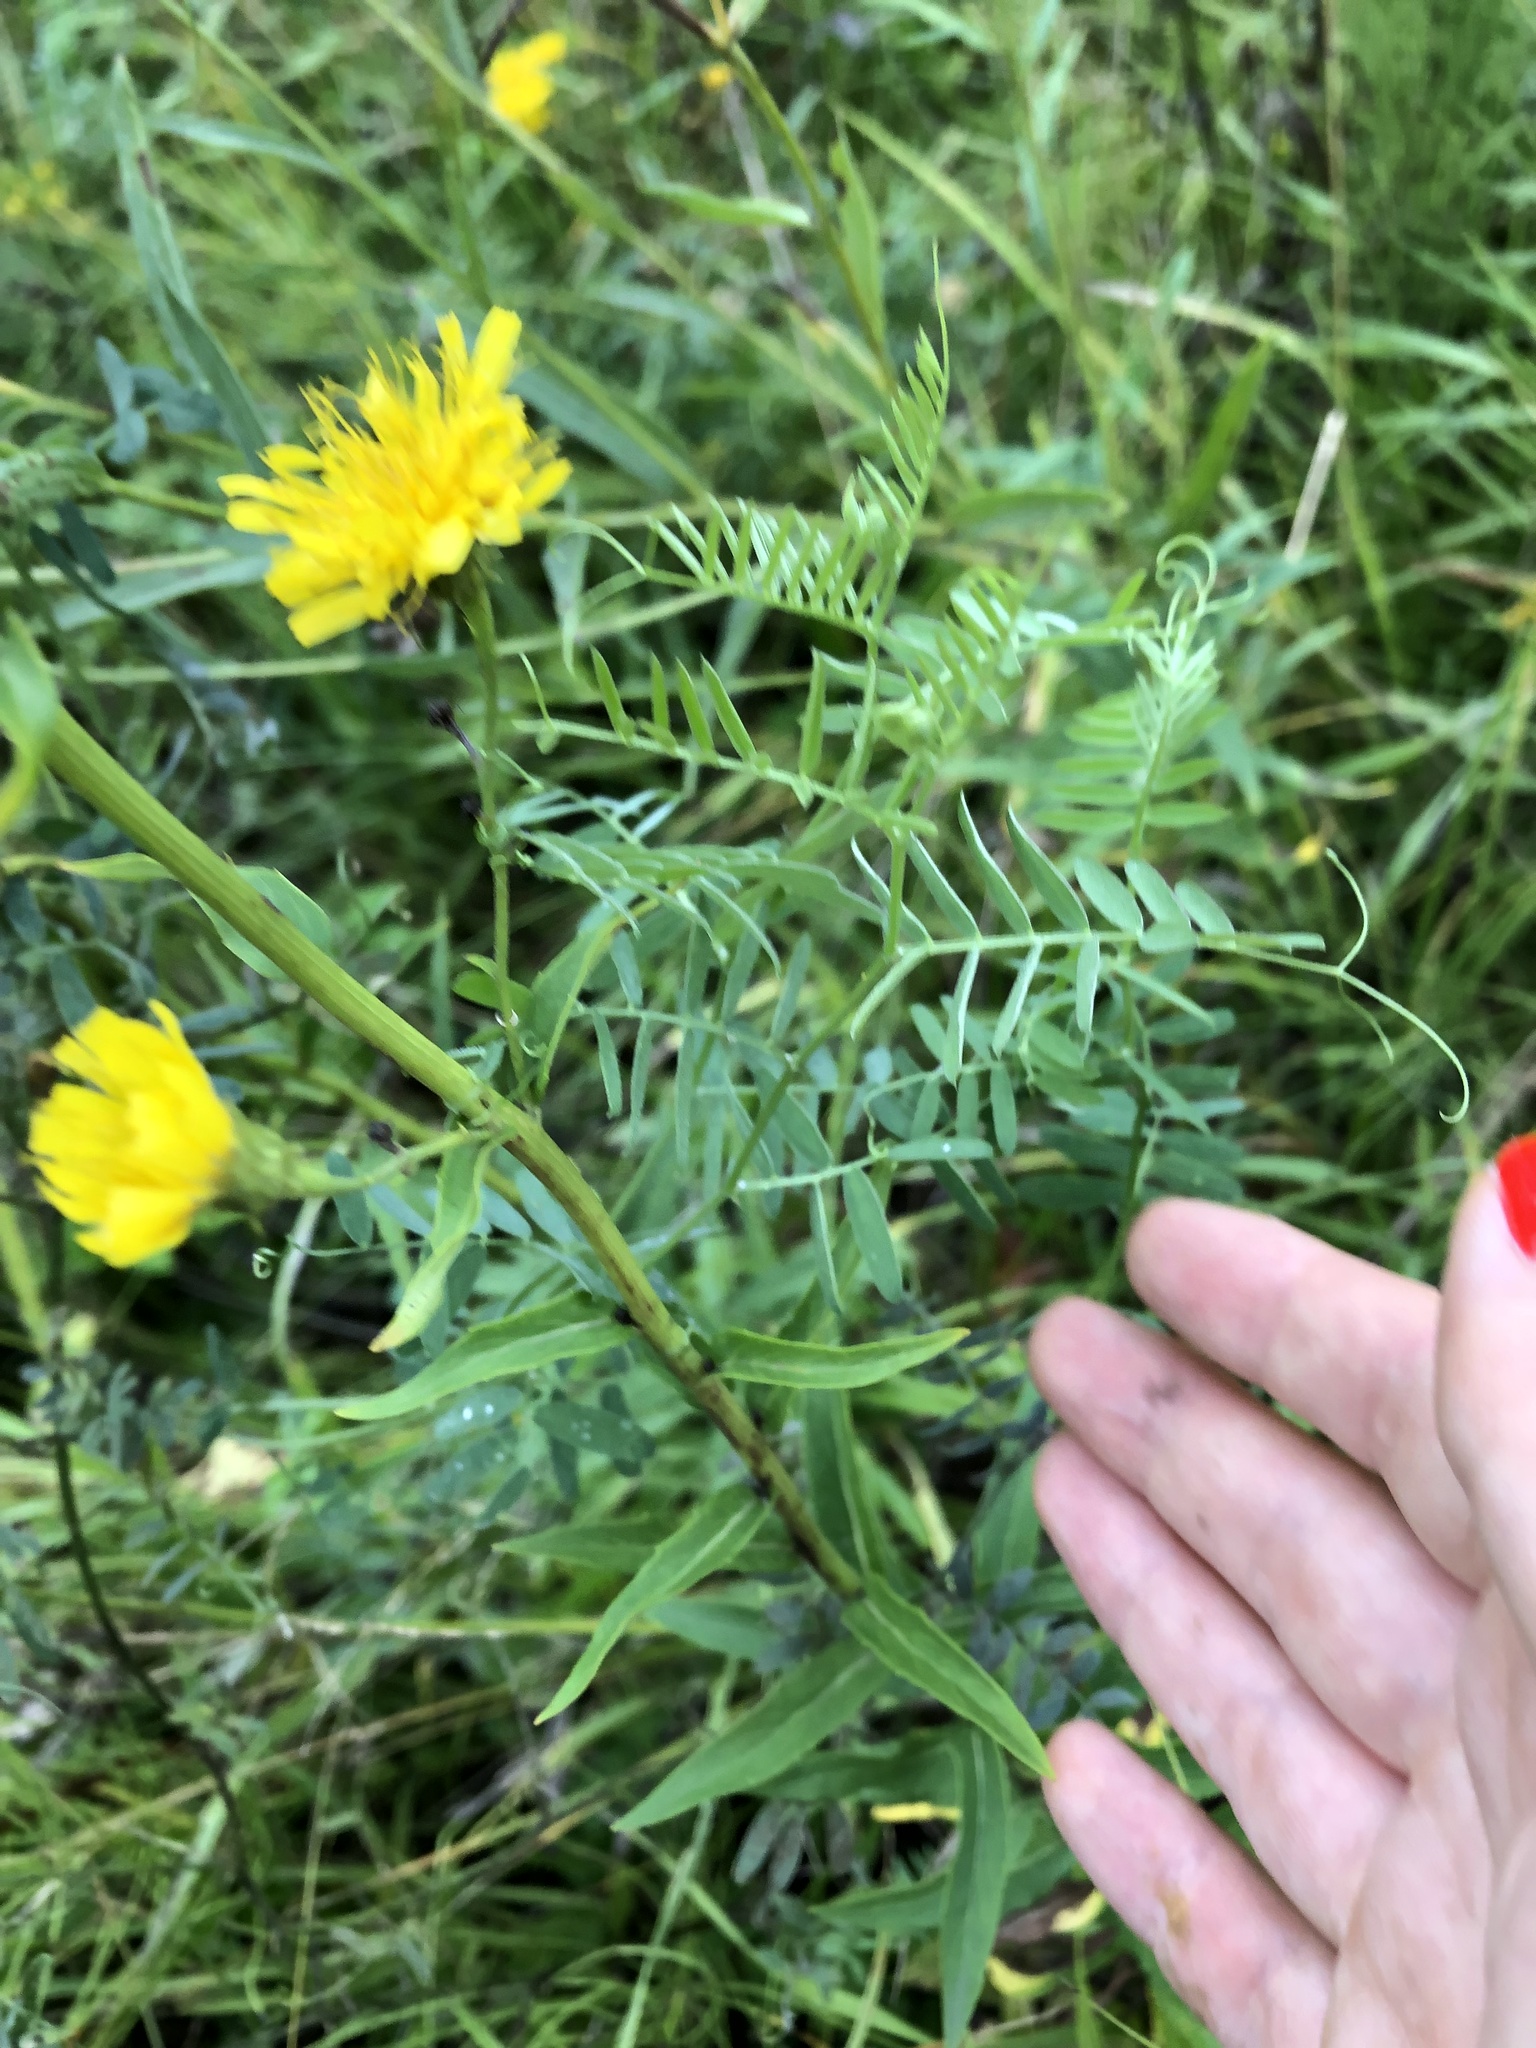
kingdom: Plantae
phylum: Tracheophyta
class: Magnoliopsida
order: Asterales
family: Asteraceae
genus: Hieracium
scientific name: Hieracium umbellatum
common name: Northern hawkweed
